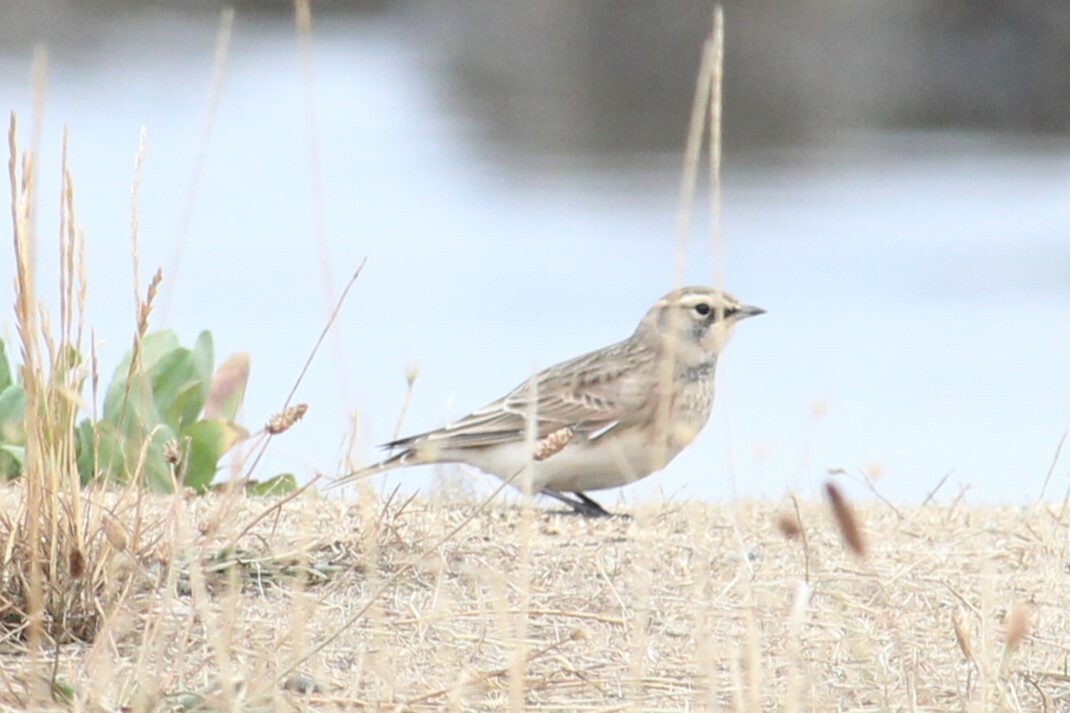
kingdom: Animalia
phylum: Chordata
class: Aves
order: Passeriformes
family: Alaudidae
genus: Eremophila
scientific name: Eremophila alpestris
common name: Horned lark
